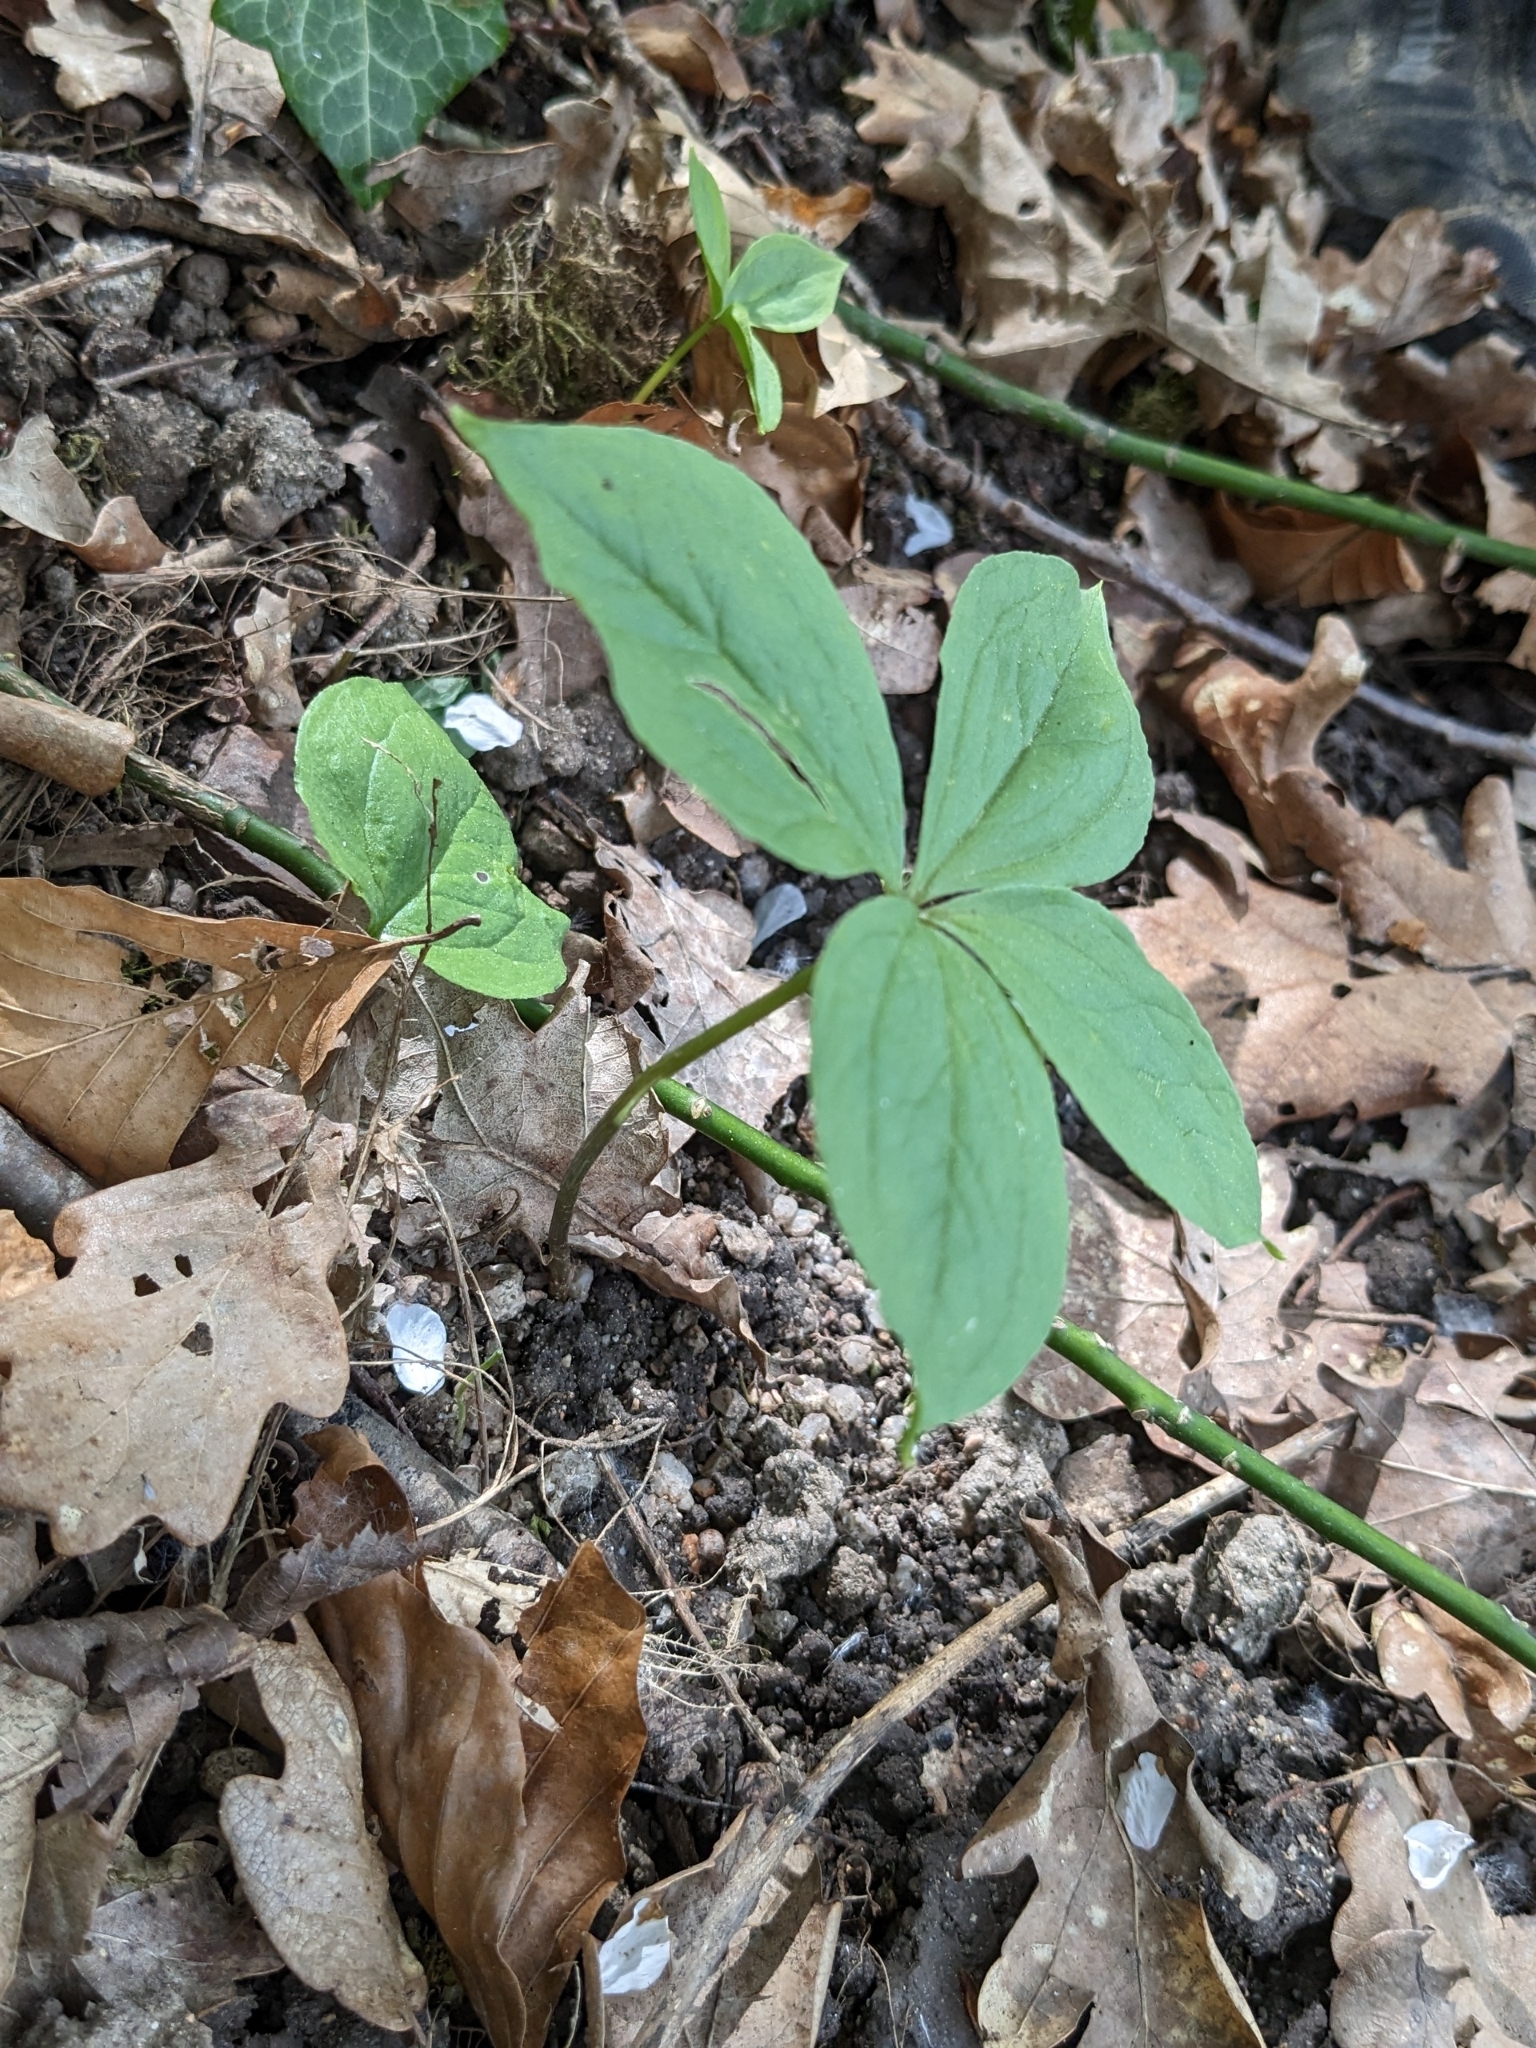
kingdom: Plantae
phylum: Tracheophyta
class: Liliopsida
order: Liliales
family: Melanthiaceae
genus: Paris
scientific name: Paris quadrifolia
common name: Herb-paris
